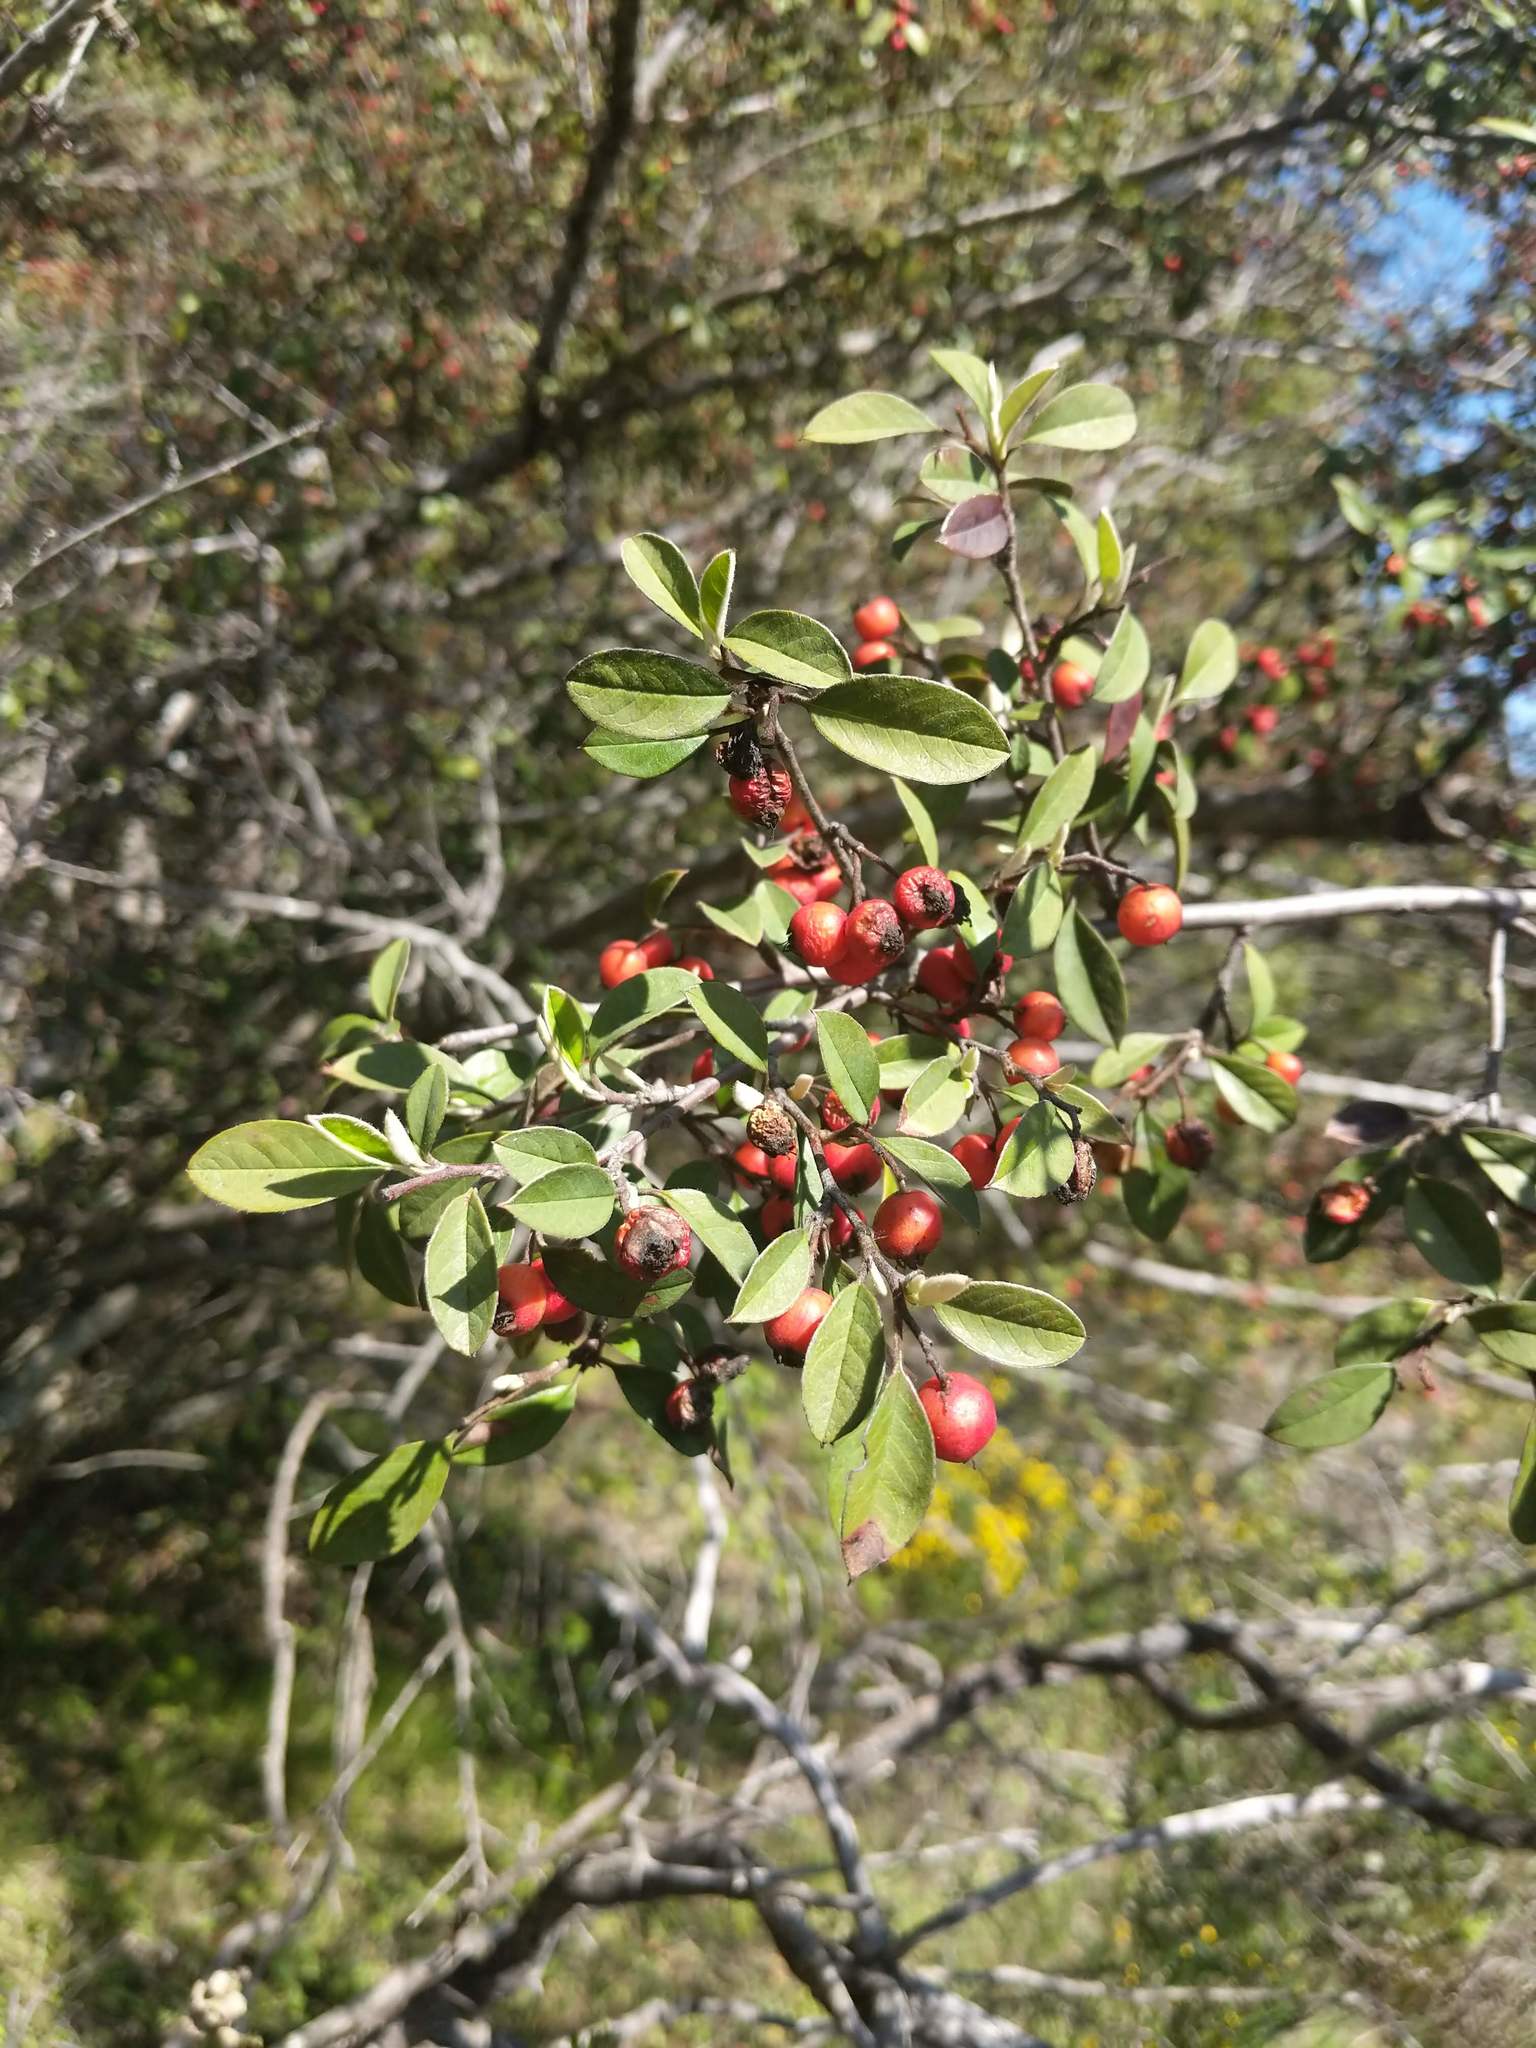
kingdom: Plantae
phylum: Tracheophyta
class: Magnoliopsida
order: Rosales
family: Rosaceae
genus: Cotoneaster
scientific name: Cotoneaster pannosus
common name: Silverleaf cotoneaster
